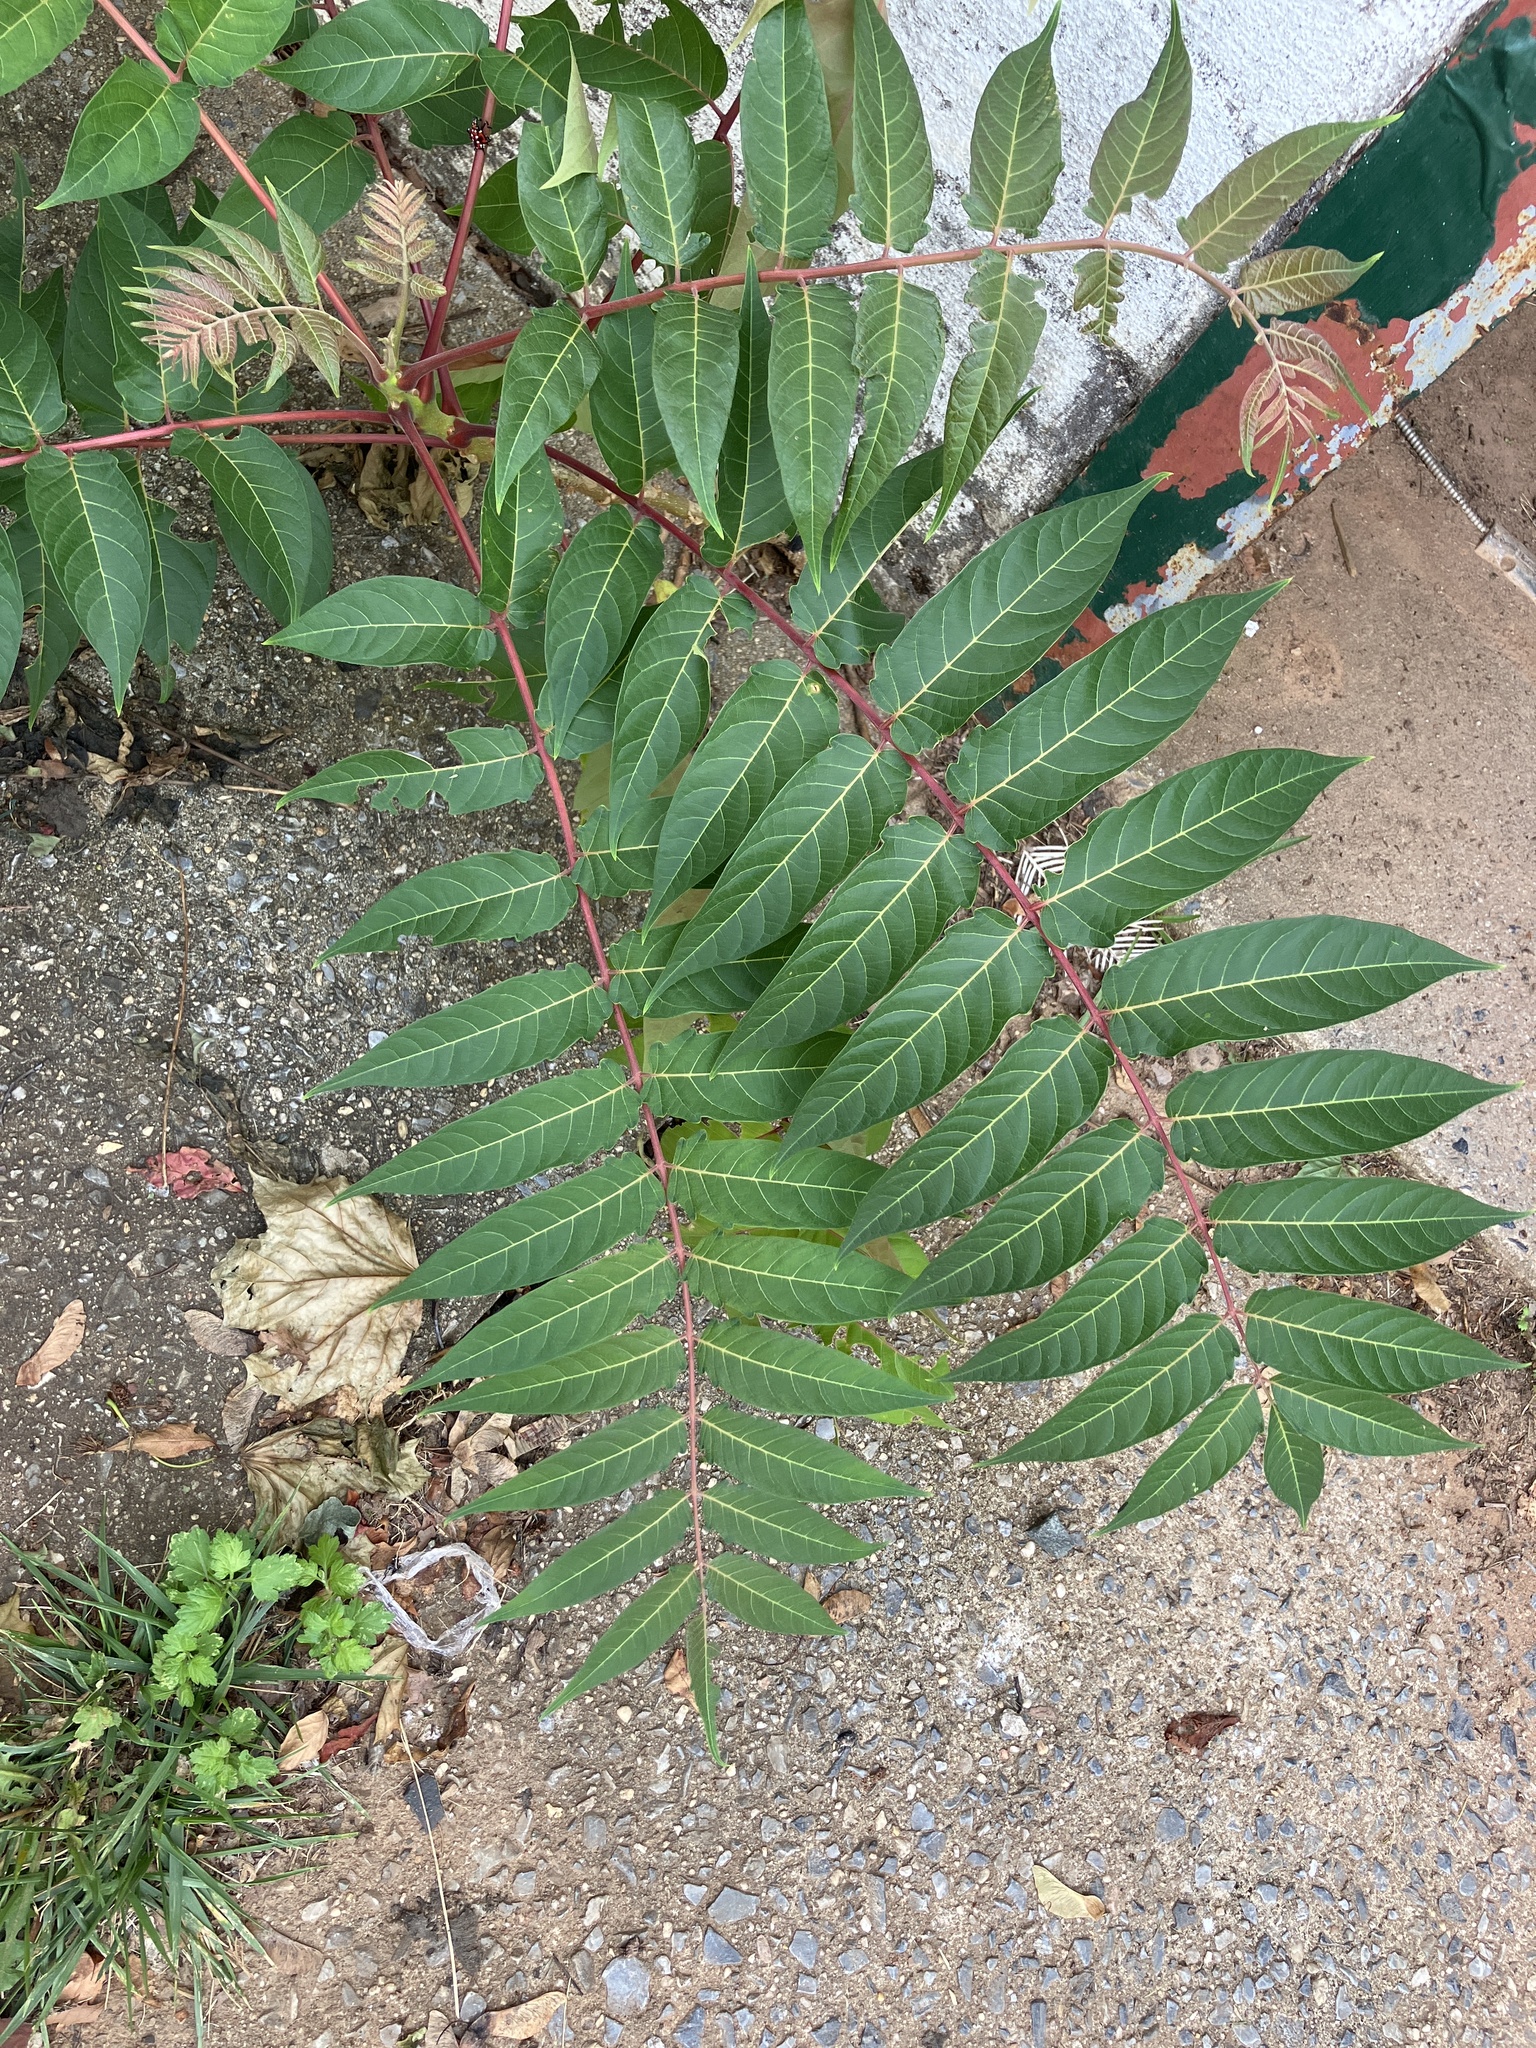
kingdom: Plantae
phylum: Tracheophyta
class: Magnoliopsida
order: Sapindales
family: Simaroubaceae
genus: Ailanthus
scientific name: Ailanthus altissima
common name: Tree-of-heaven
